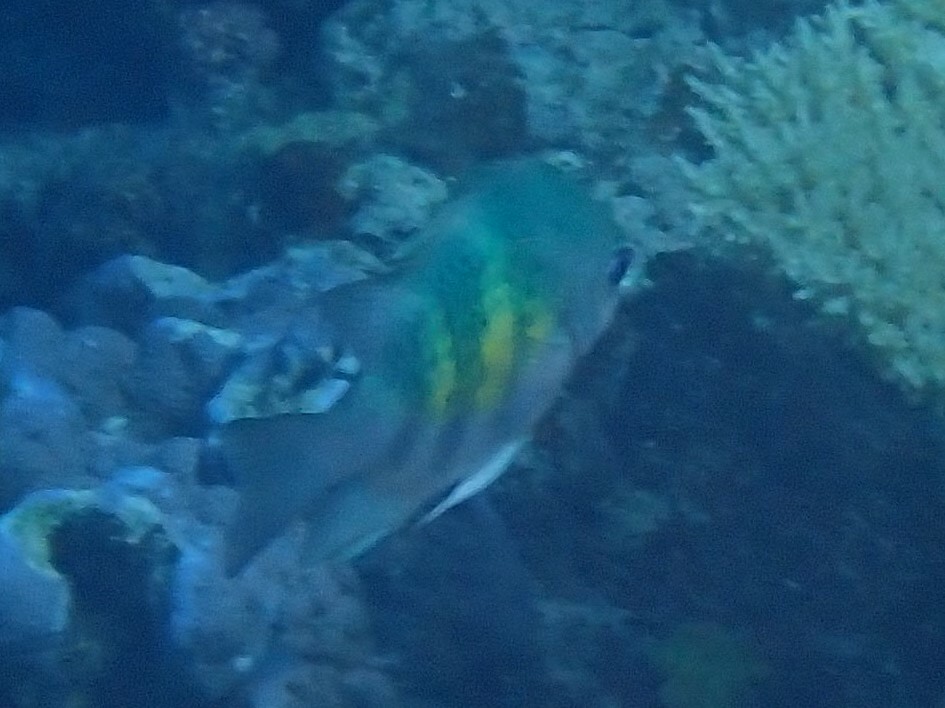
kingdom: Animalia
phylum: Chordata
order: Perciformes
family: Pomacentridae
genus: Amblyglyphidodon
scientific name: Amblyglyphidodon curacao
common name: Staghorn damsel
